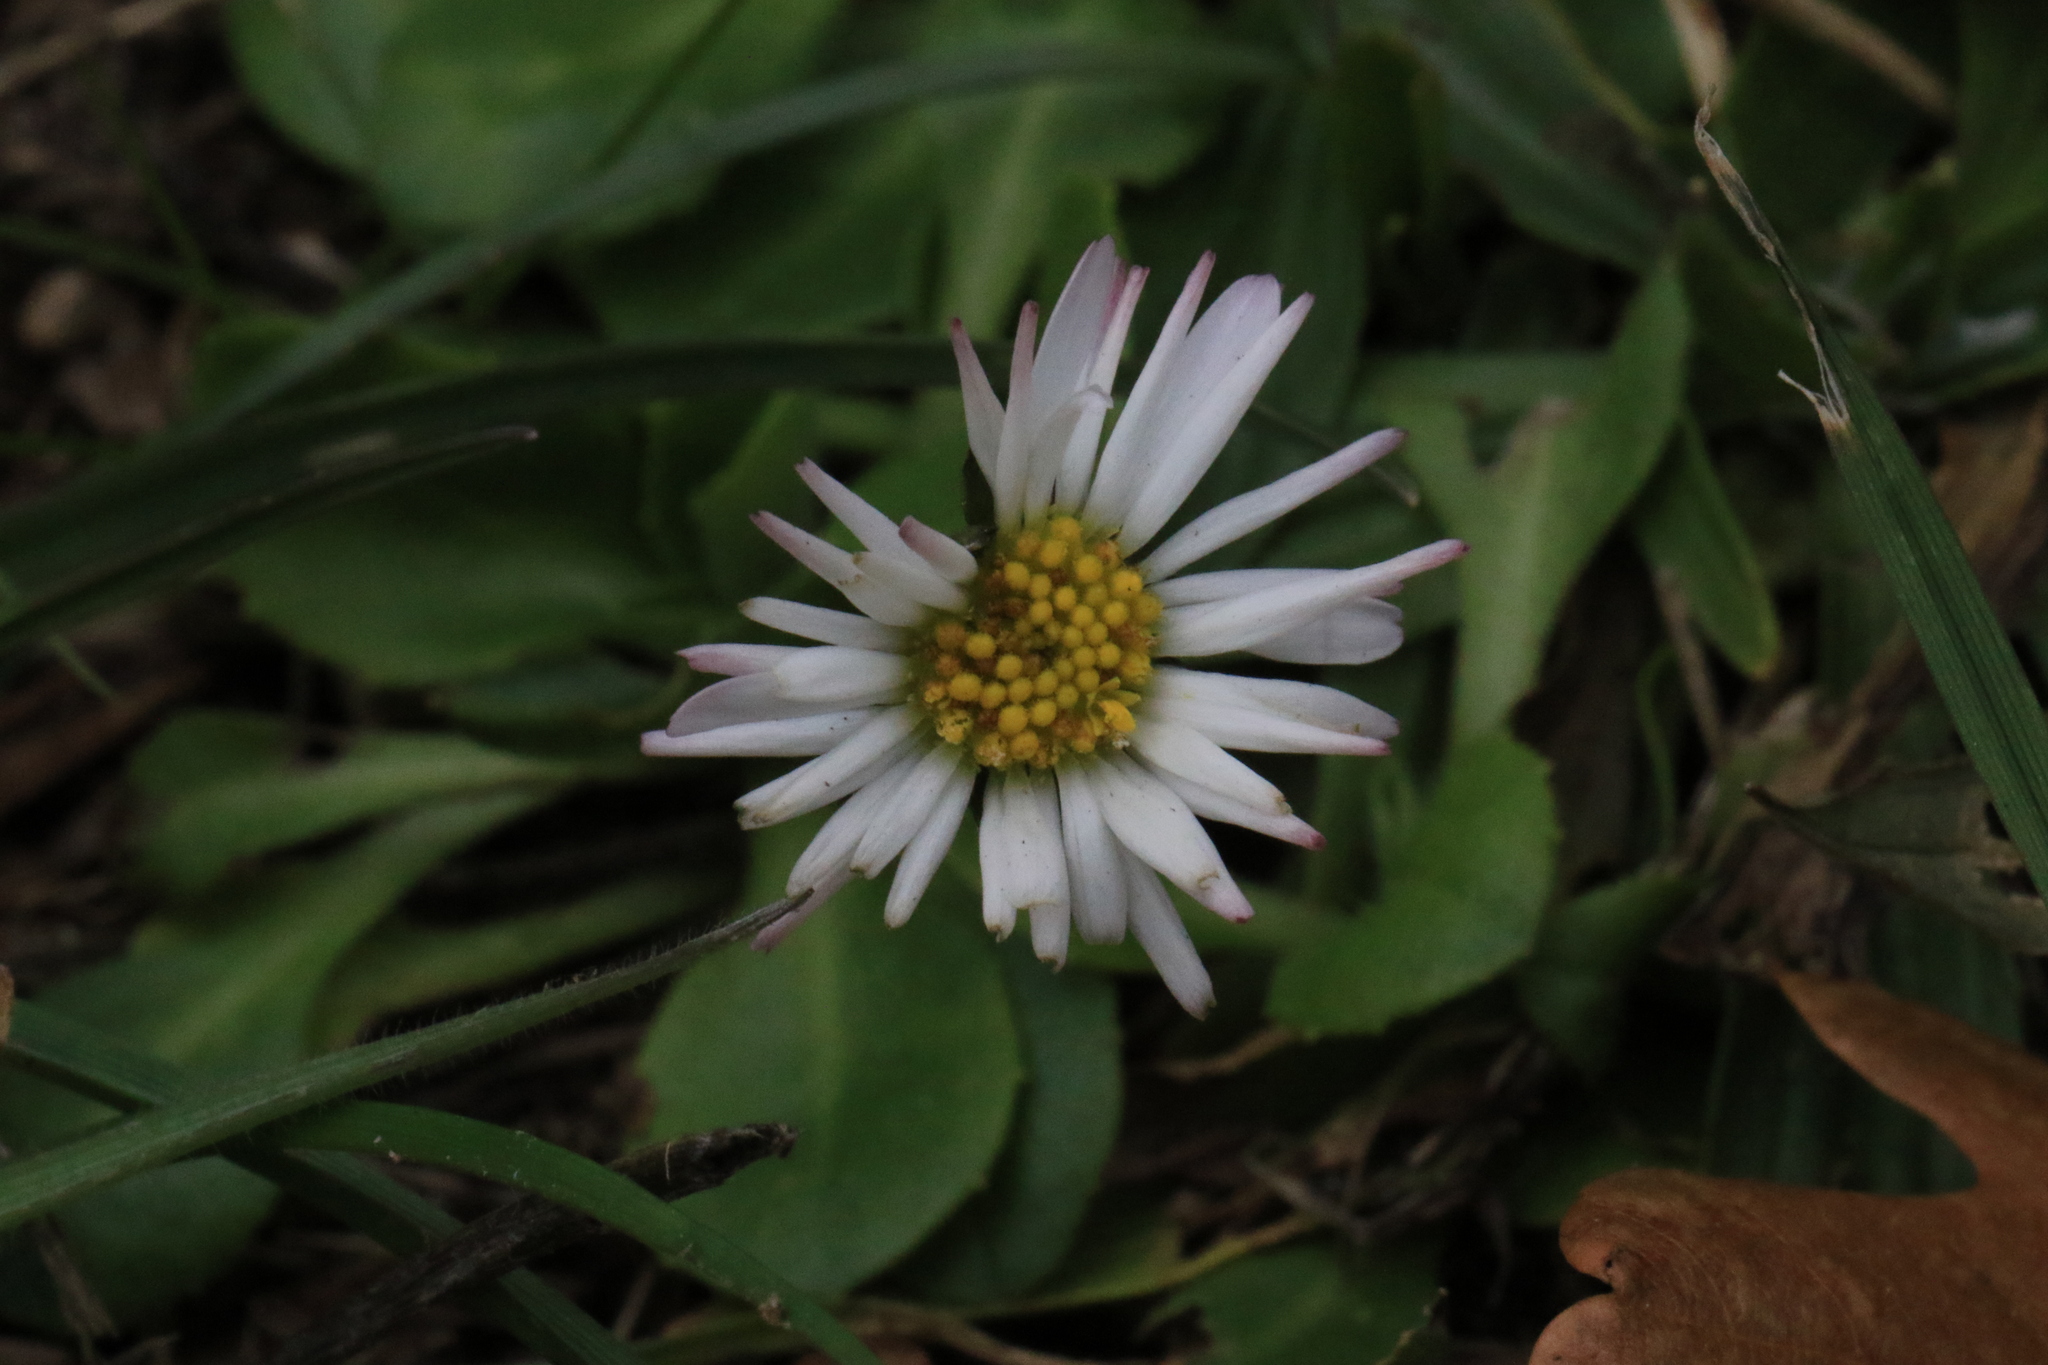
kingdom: Plantae
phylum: Tracheophyta
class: Magnoliopsida
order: Asterales
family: Asteraceae
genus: Bellis
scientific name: Bellis perennis
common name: Lawndaisy
